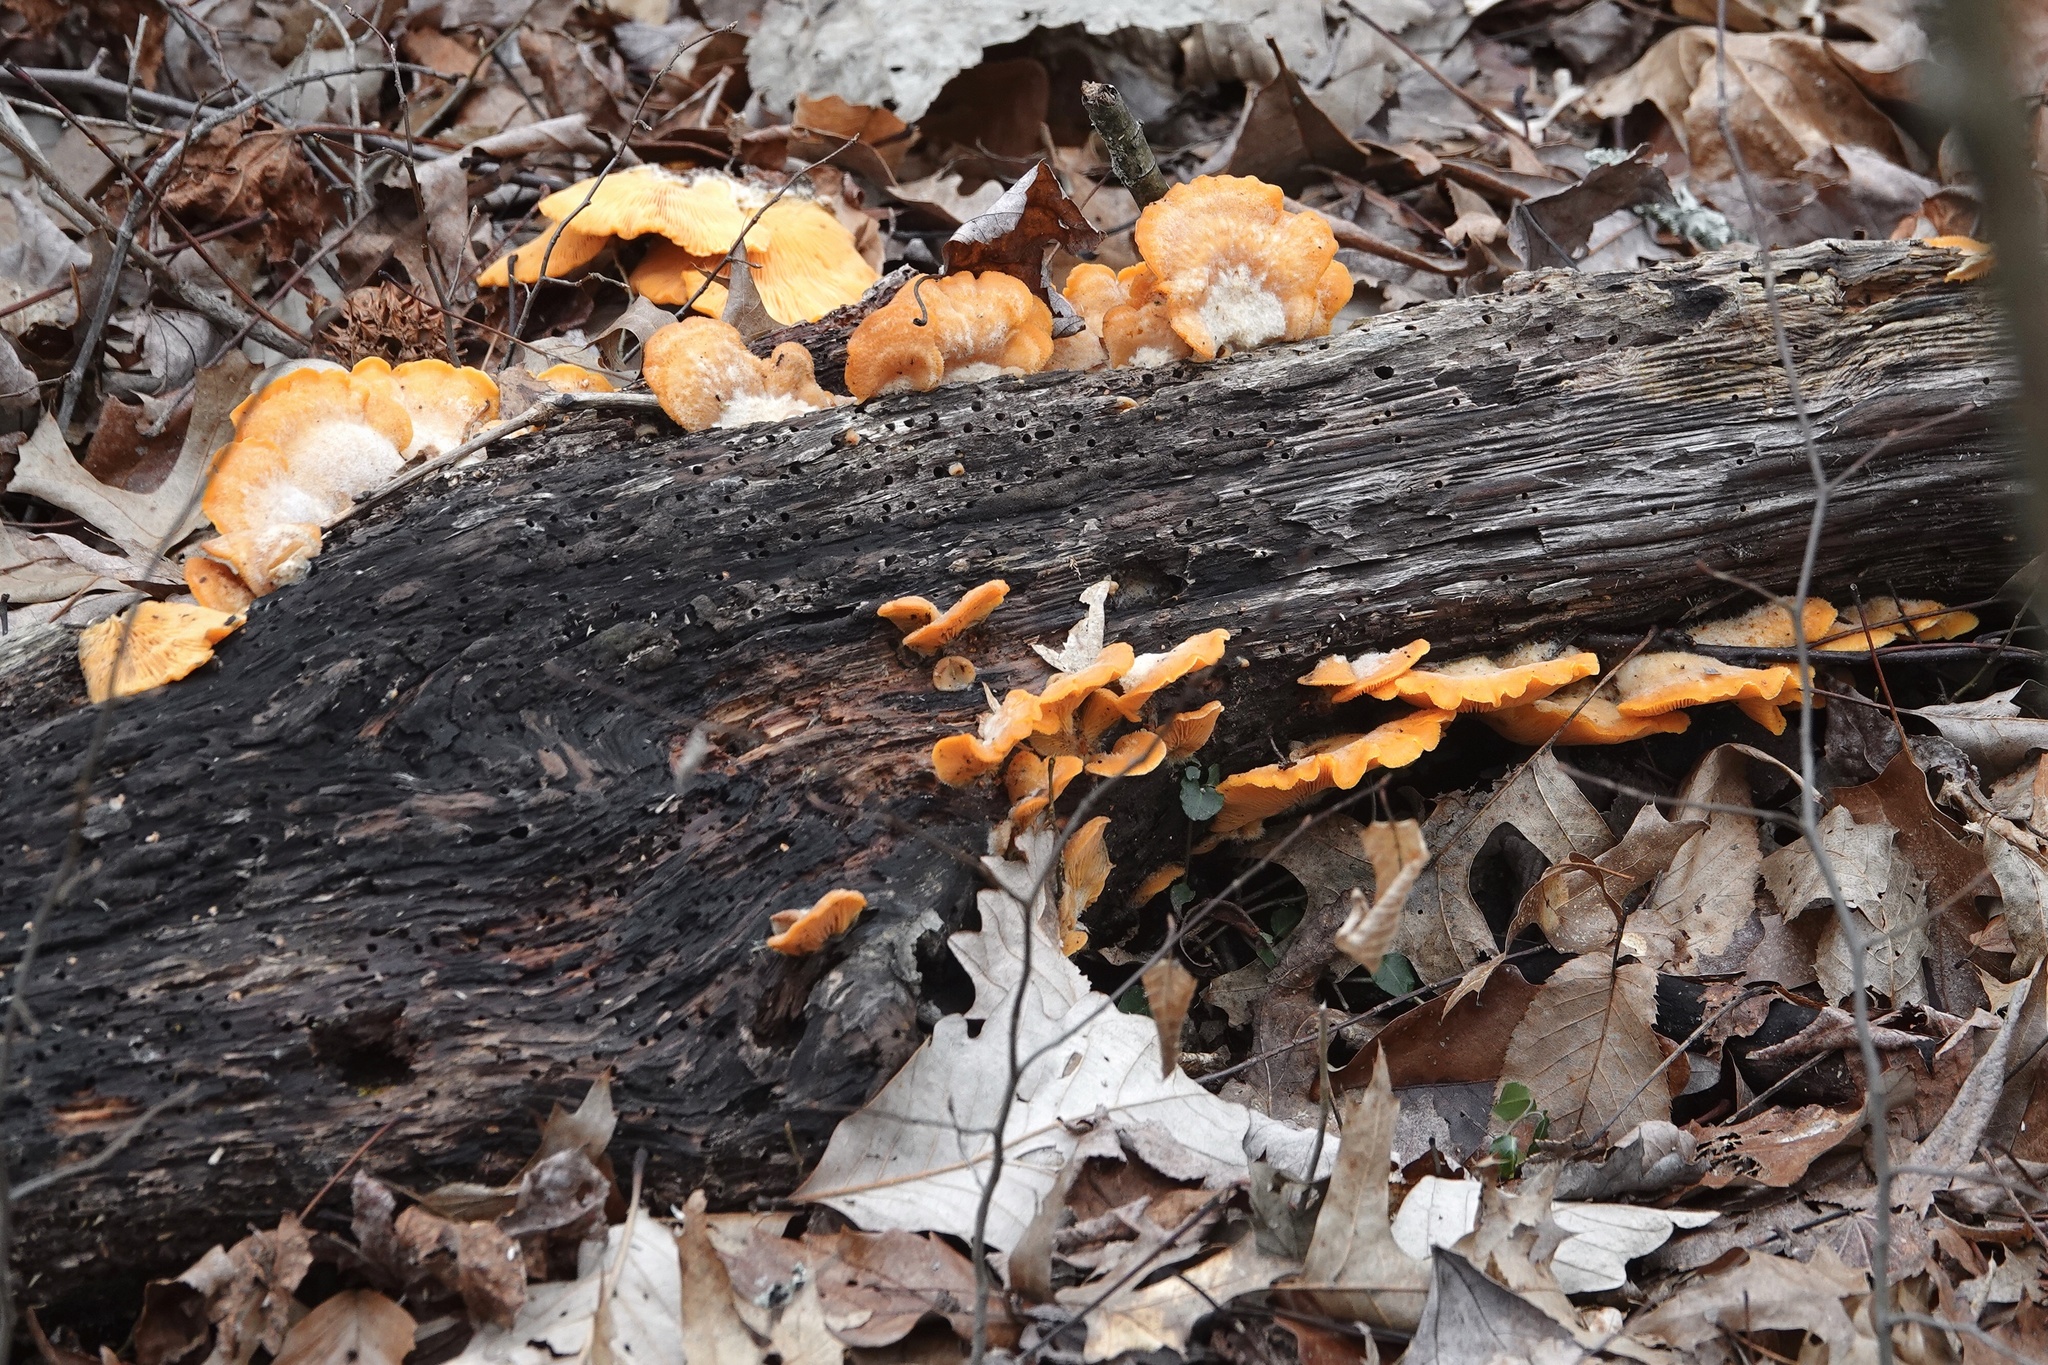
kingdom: Fungi
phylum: Basidiomycota
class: Agaricomycetes
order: Agaricales
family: Phyllotopsidaceae
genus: Phyllotopsis
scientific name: Phyllotopsis nidulans
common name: Orange mock oyster
